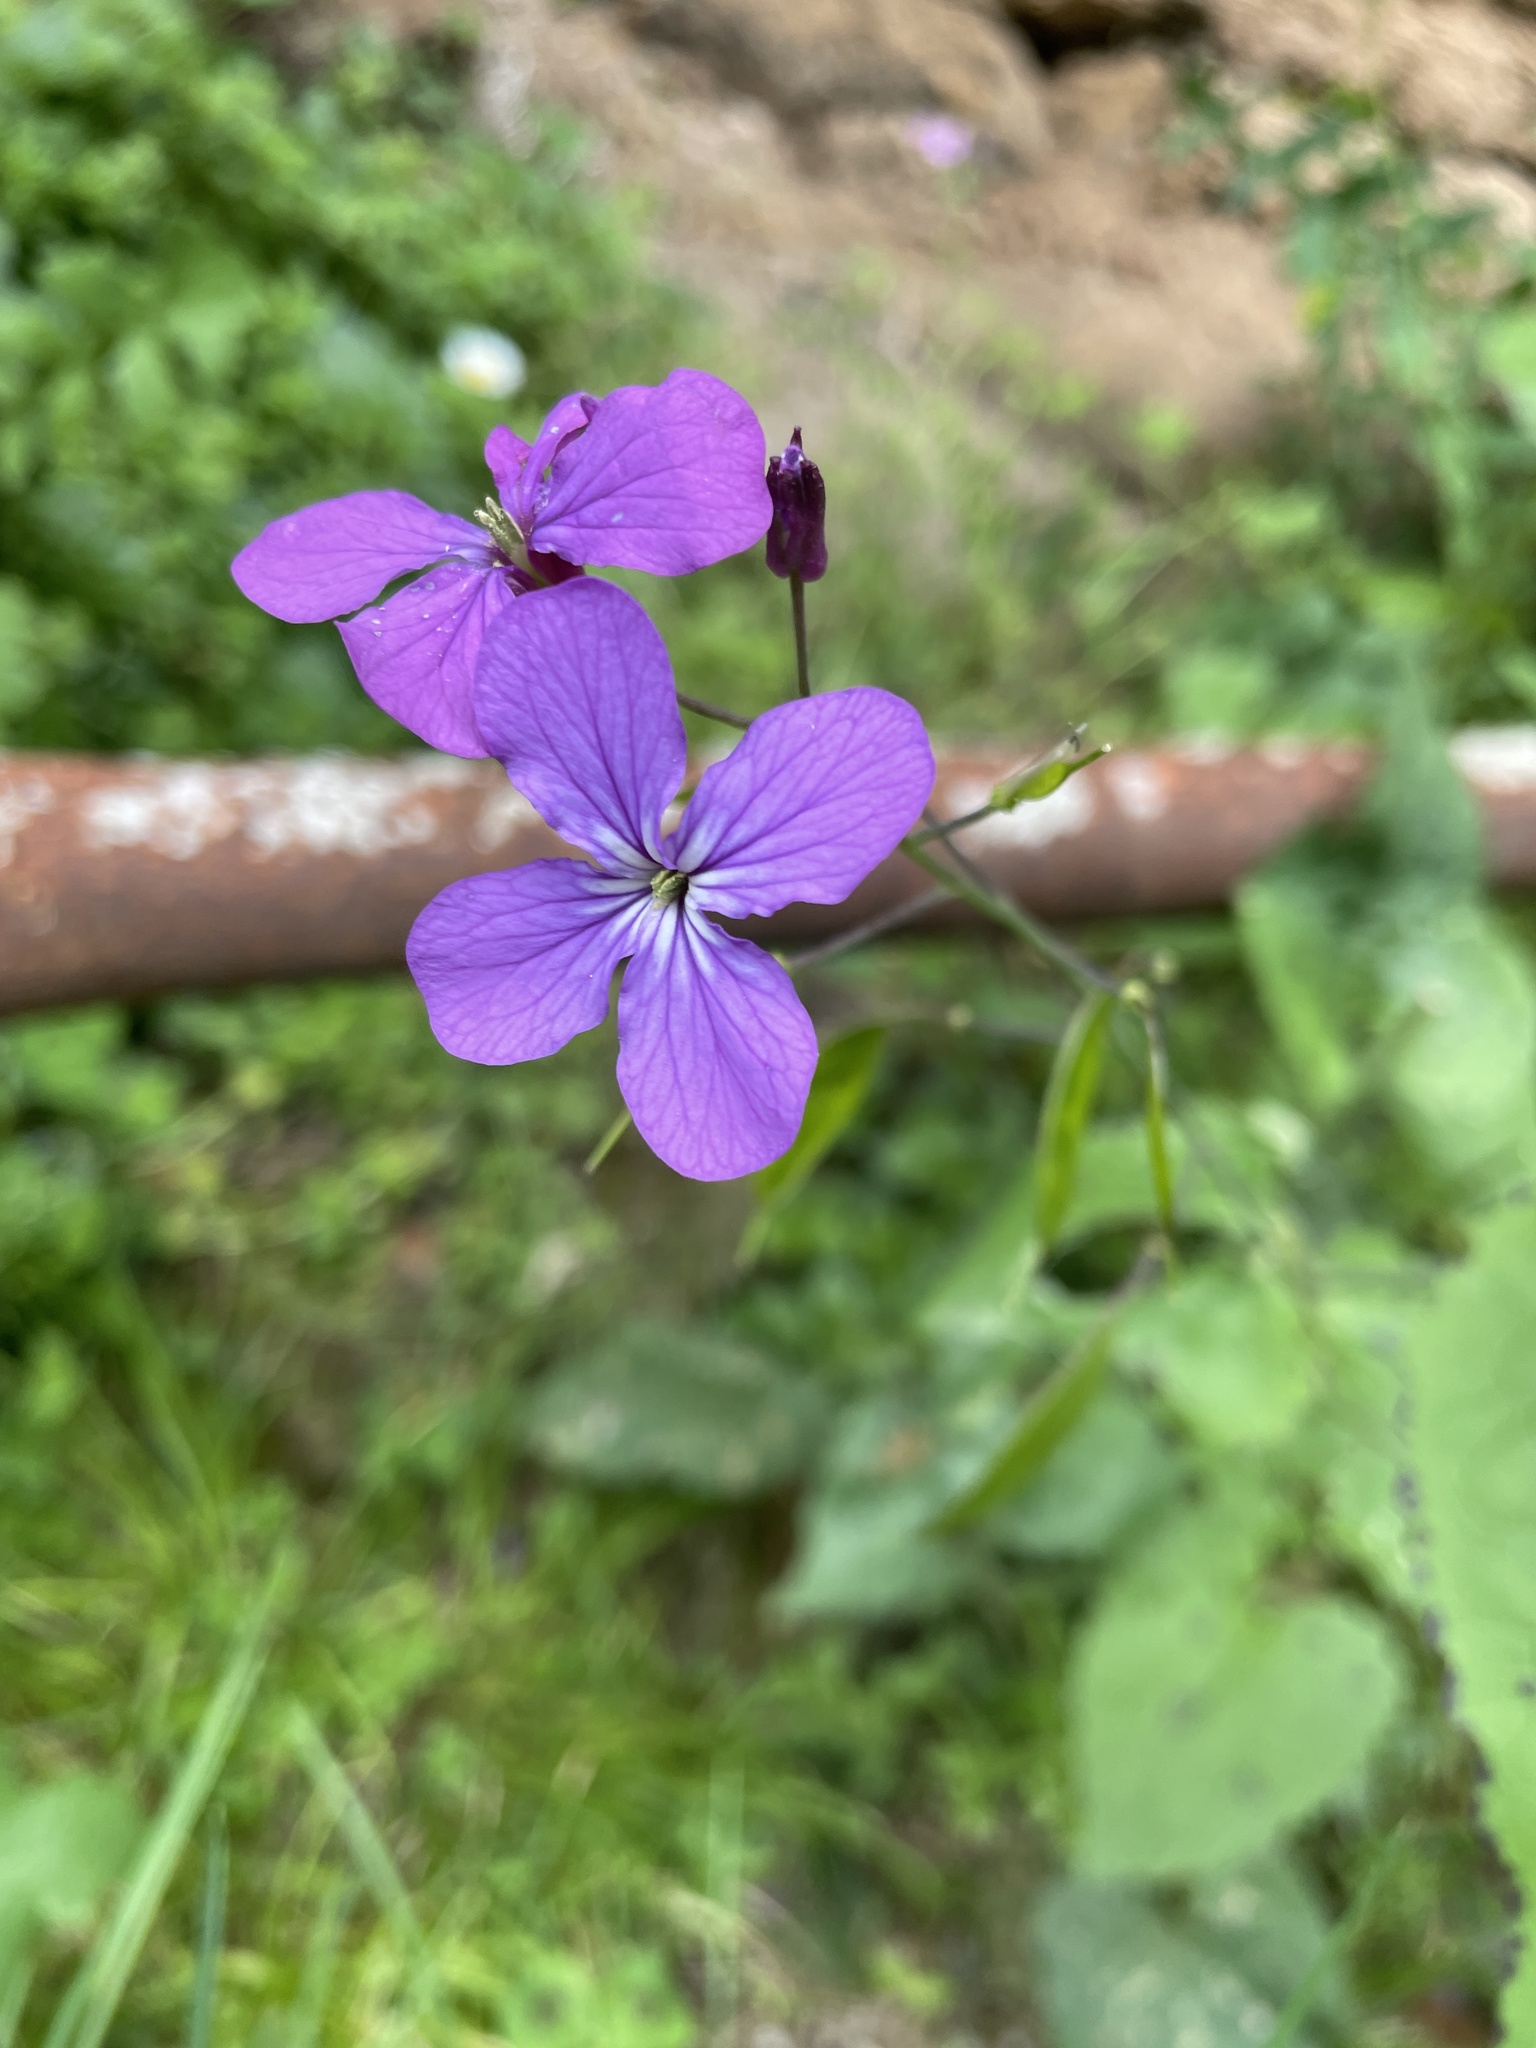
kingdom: Plantae
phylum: Tracheophyta
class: Magnoliopsida
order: Brassicales
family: Brassicaceae
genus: Lunaria
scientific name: Lunaria annua
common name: Honesty
